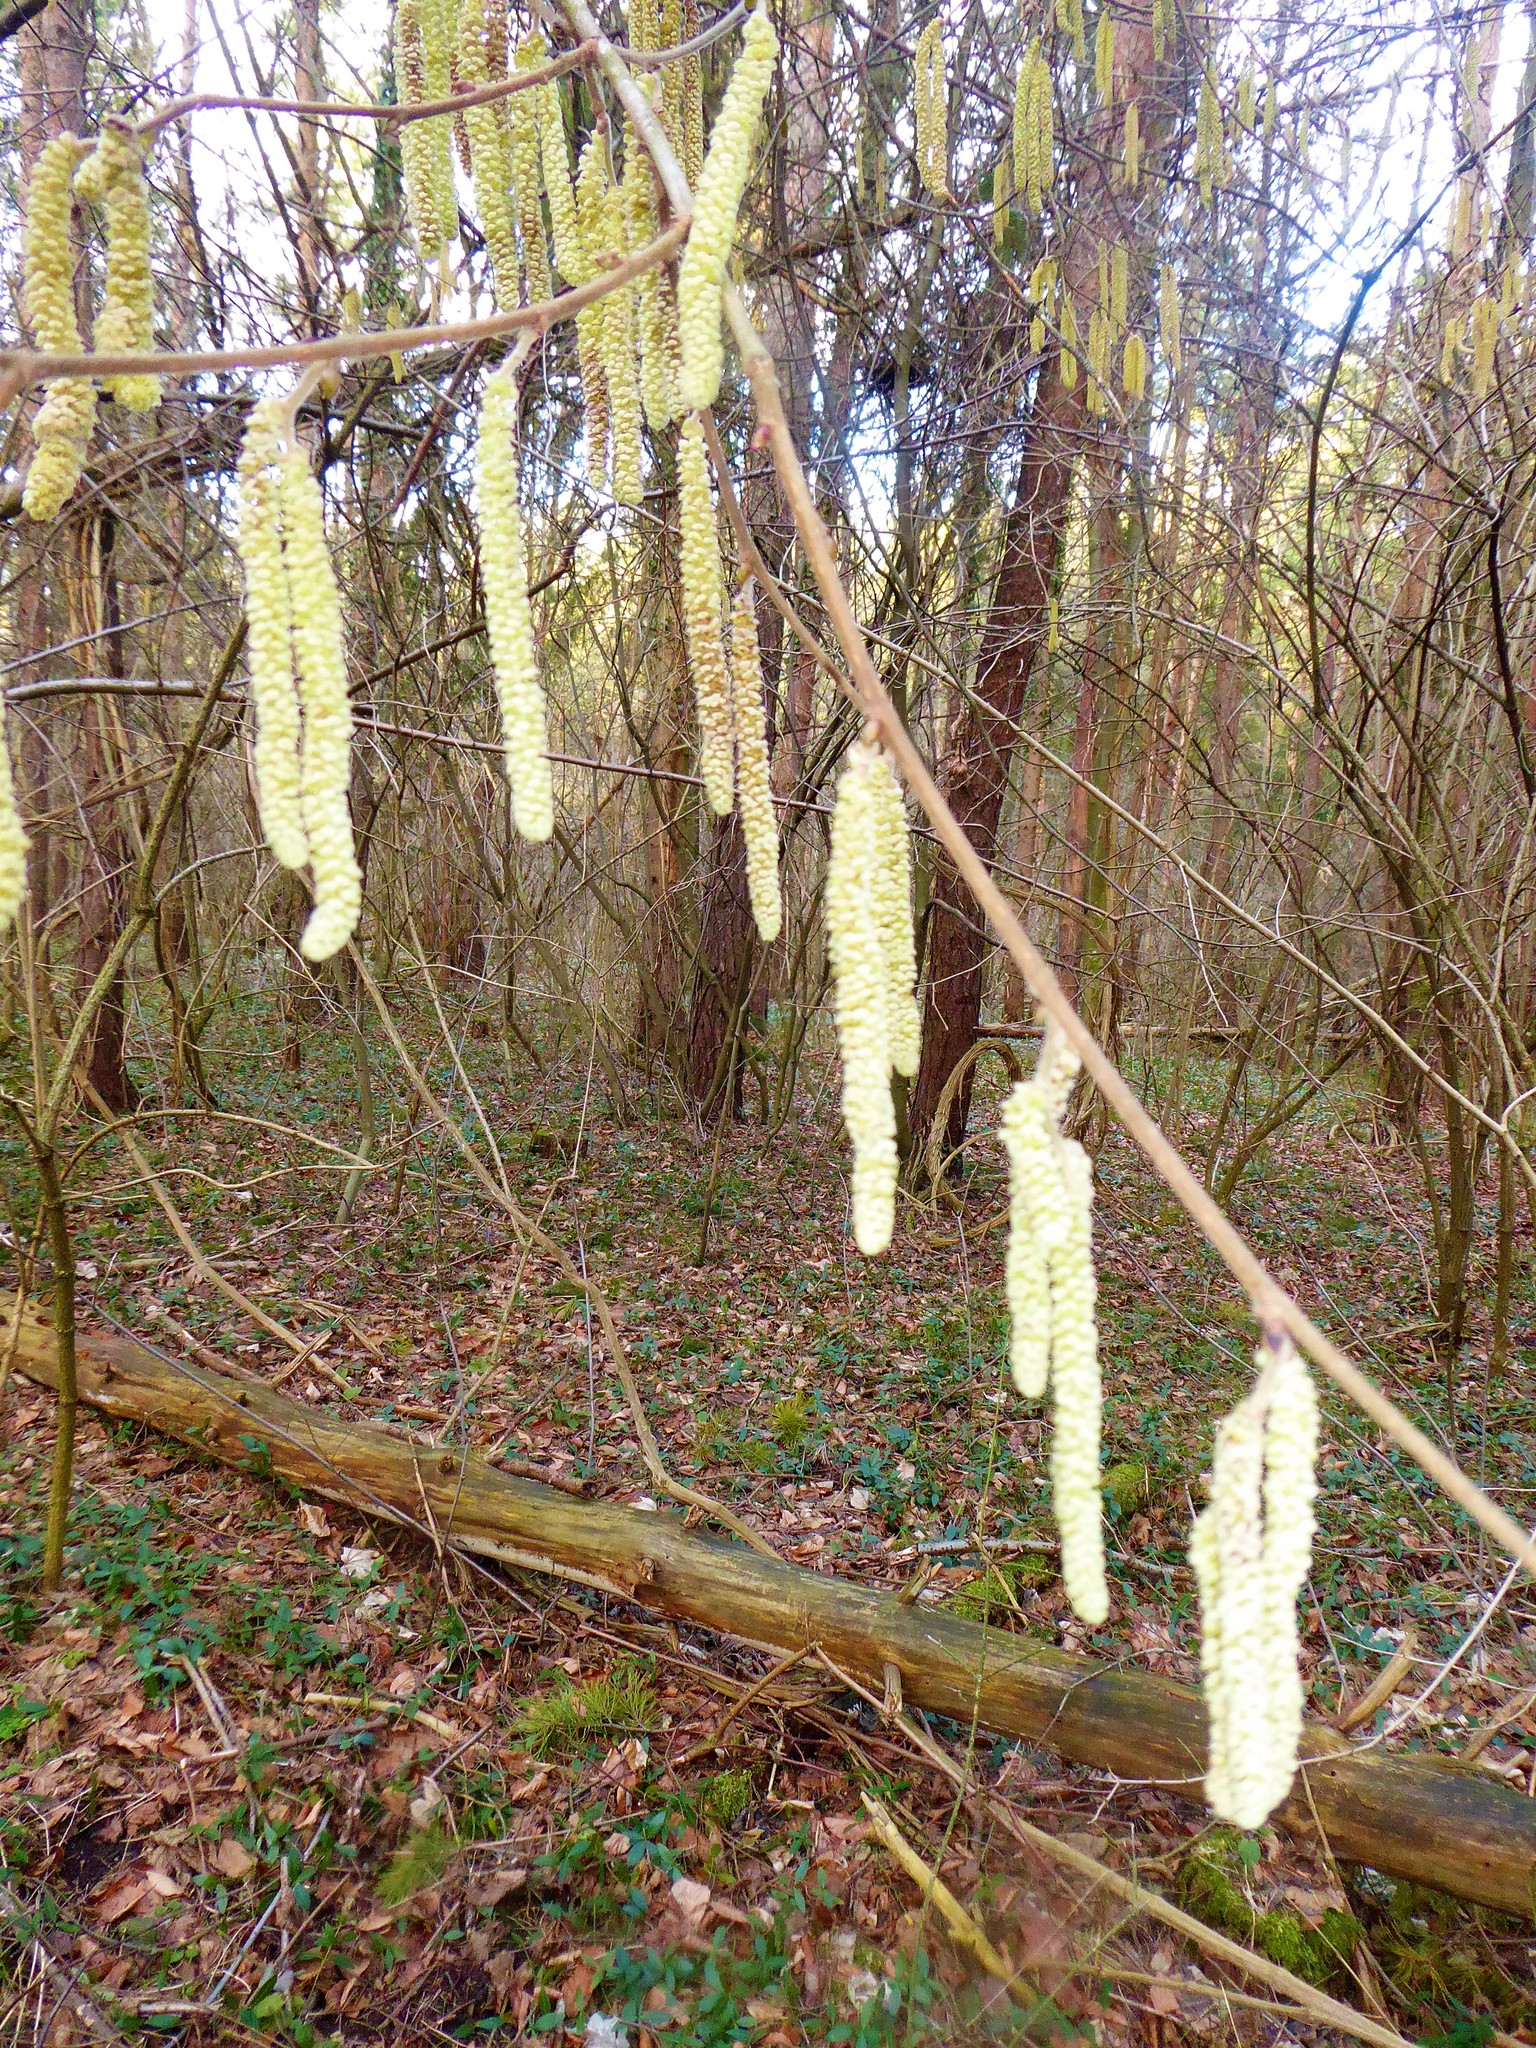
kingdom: Plantae
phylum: Tracheophyta
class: Magnoliopsida
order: Fagales
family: Betulaceae
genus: Corylus
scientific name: Corylus avellana
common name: European hazel
